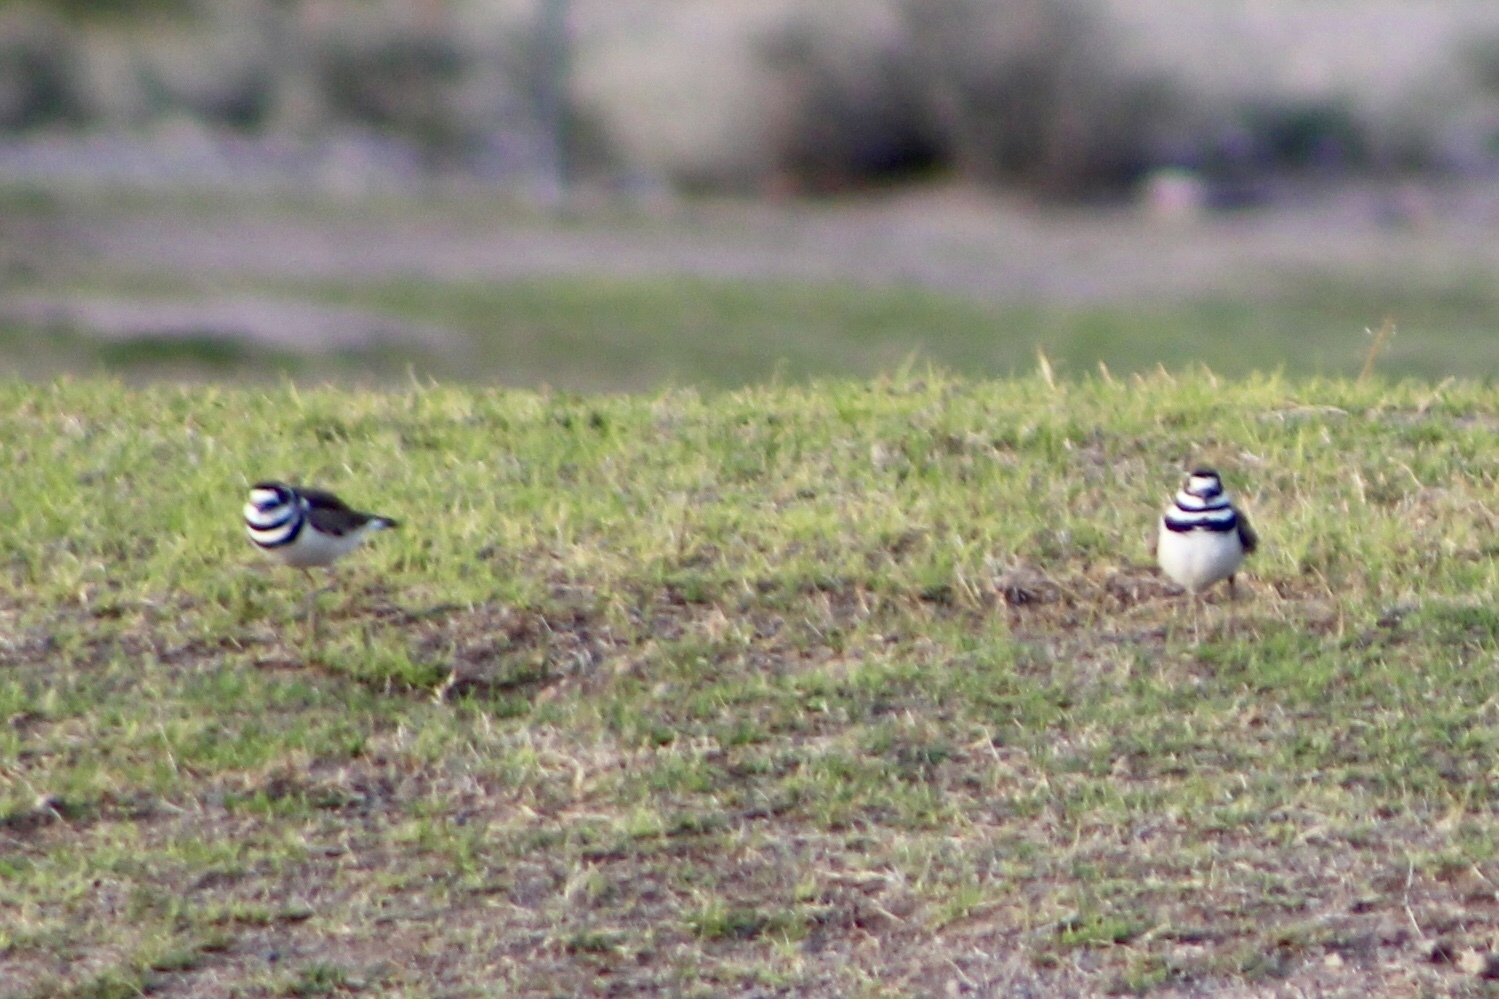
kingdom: Animalia
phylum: Chordata
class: Aves
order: Charadriiformes
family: Charadriidae
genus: Charadrius
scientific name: Charadrius vociferus
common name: Killdeer
